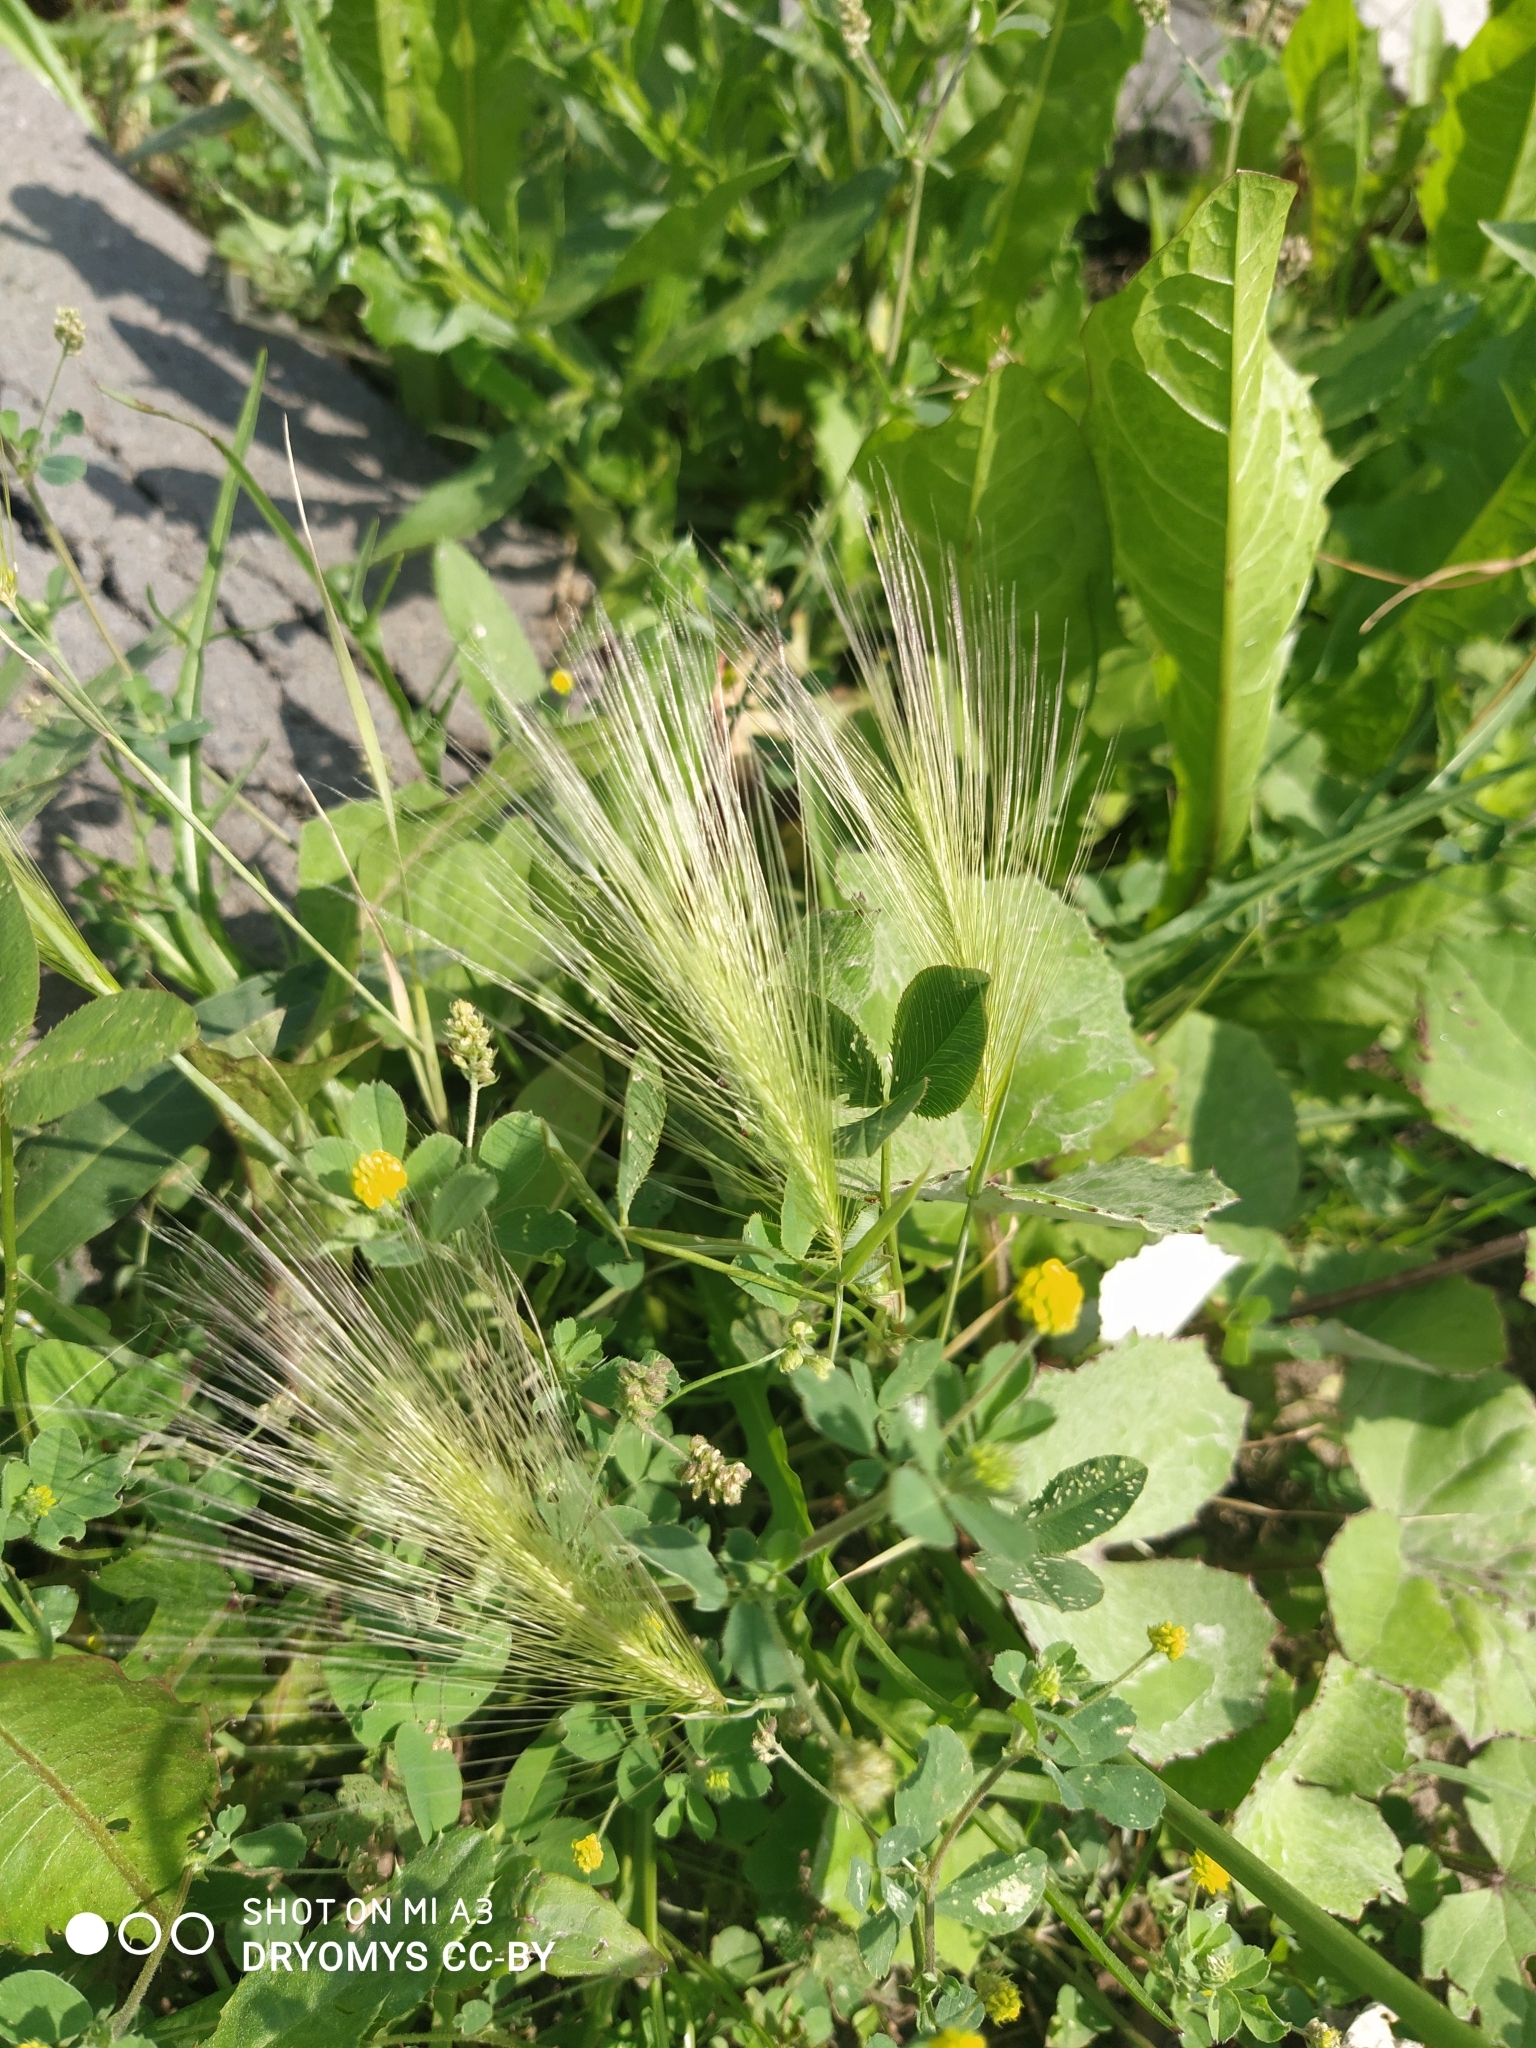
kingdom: Plantae
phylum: Tracheophyta
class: Liliopsida
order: Poales
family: Poaceae
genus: Hordeum
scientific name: Hordeum jubatum
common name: Foxtail barley
